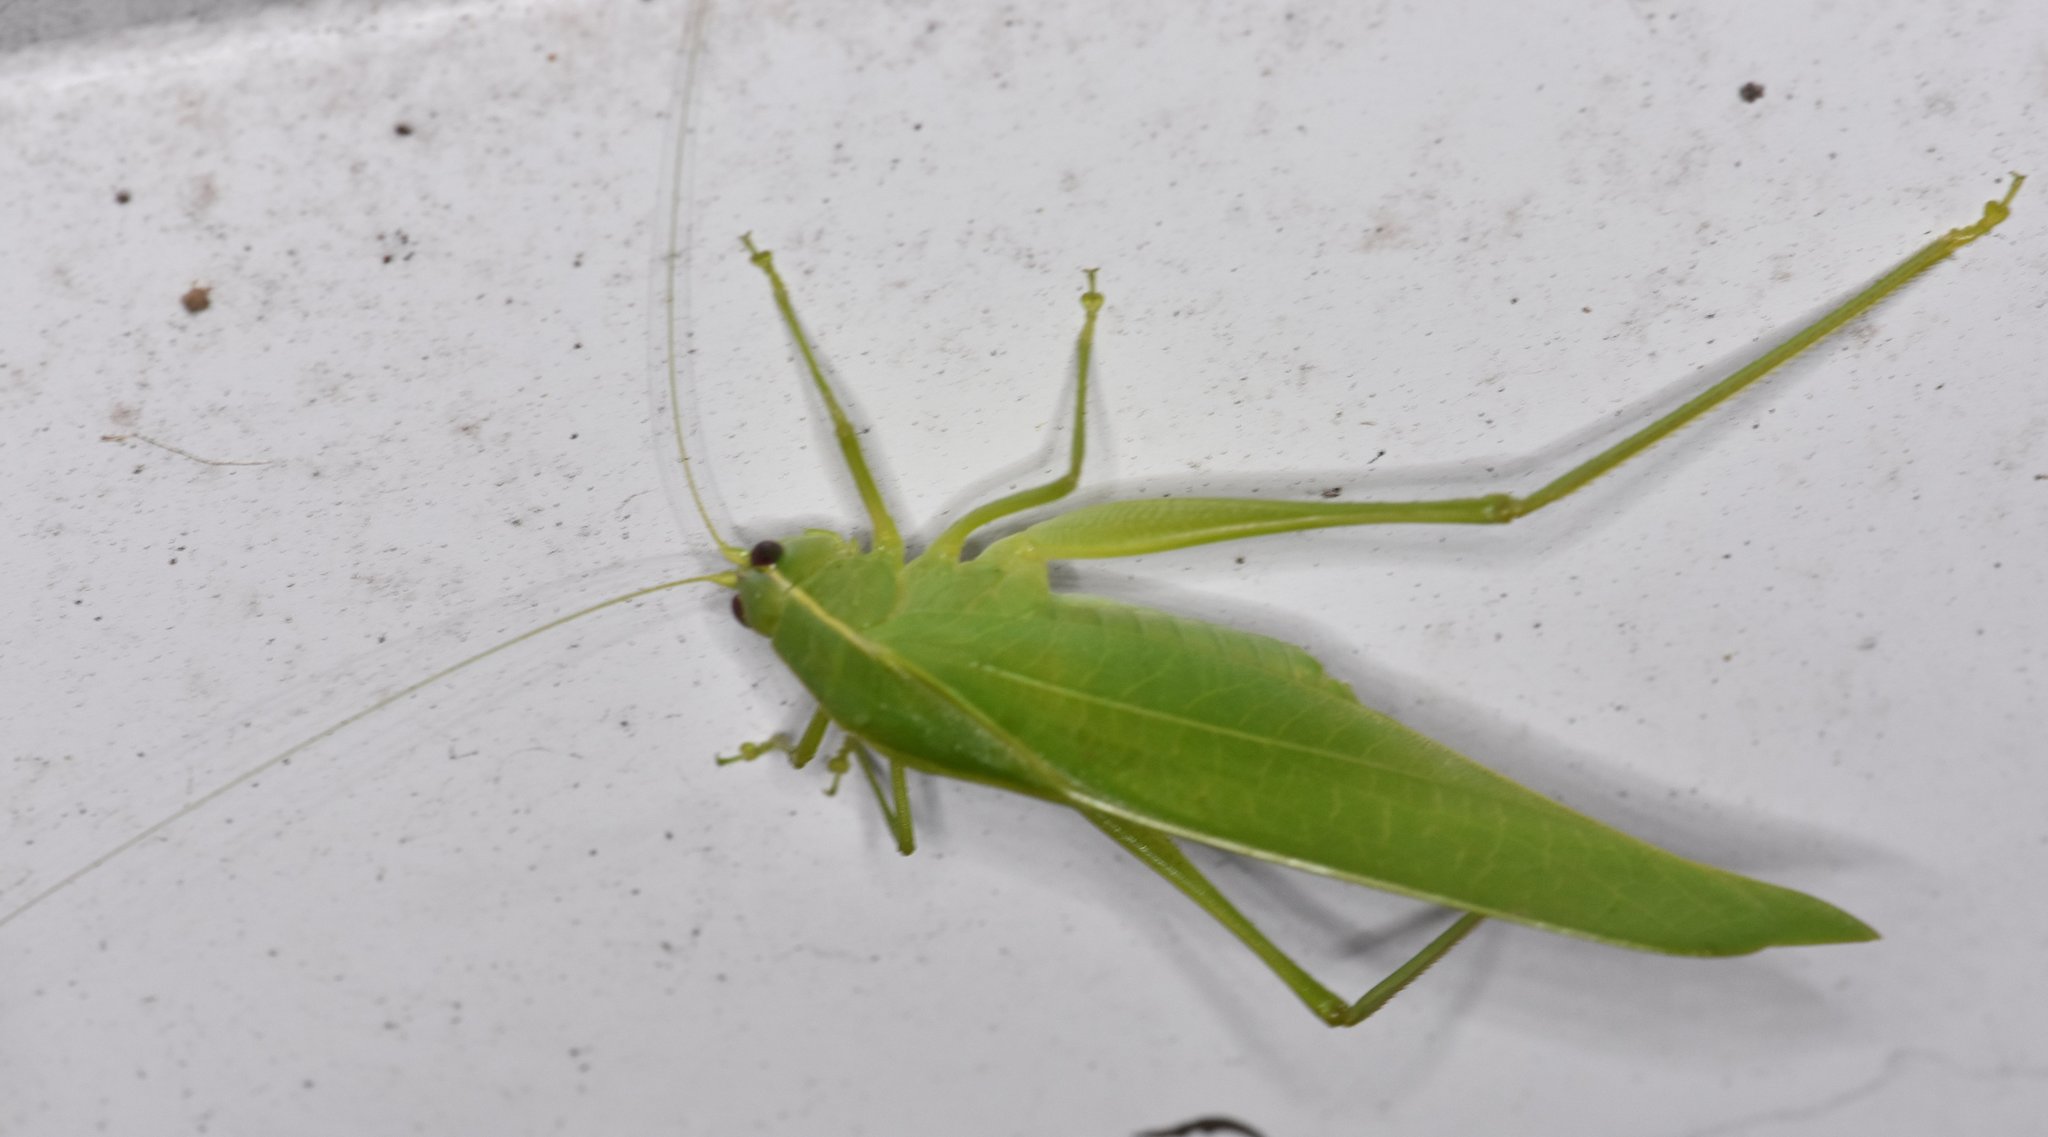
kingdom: Animalia
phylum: Arthropoda
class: Insecta
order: Orthoptera
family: Tettigoniidae
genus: Turpilia
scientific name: Turpilia rostrata
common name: Narrow-beaked katydid
